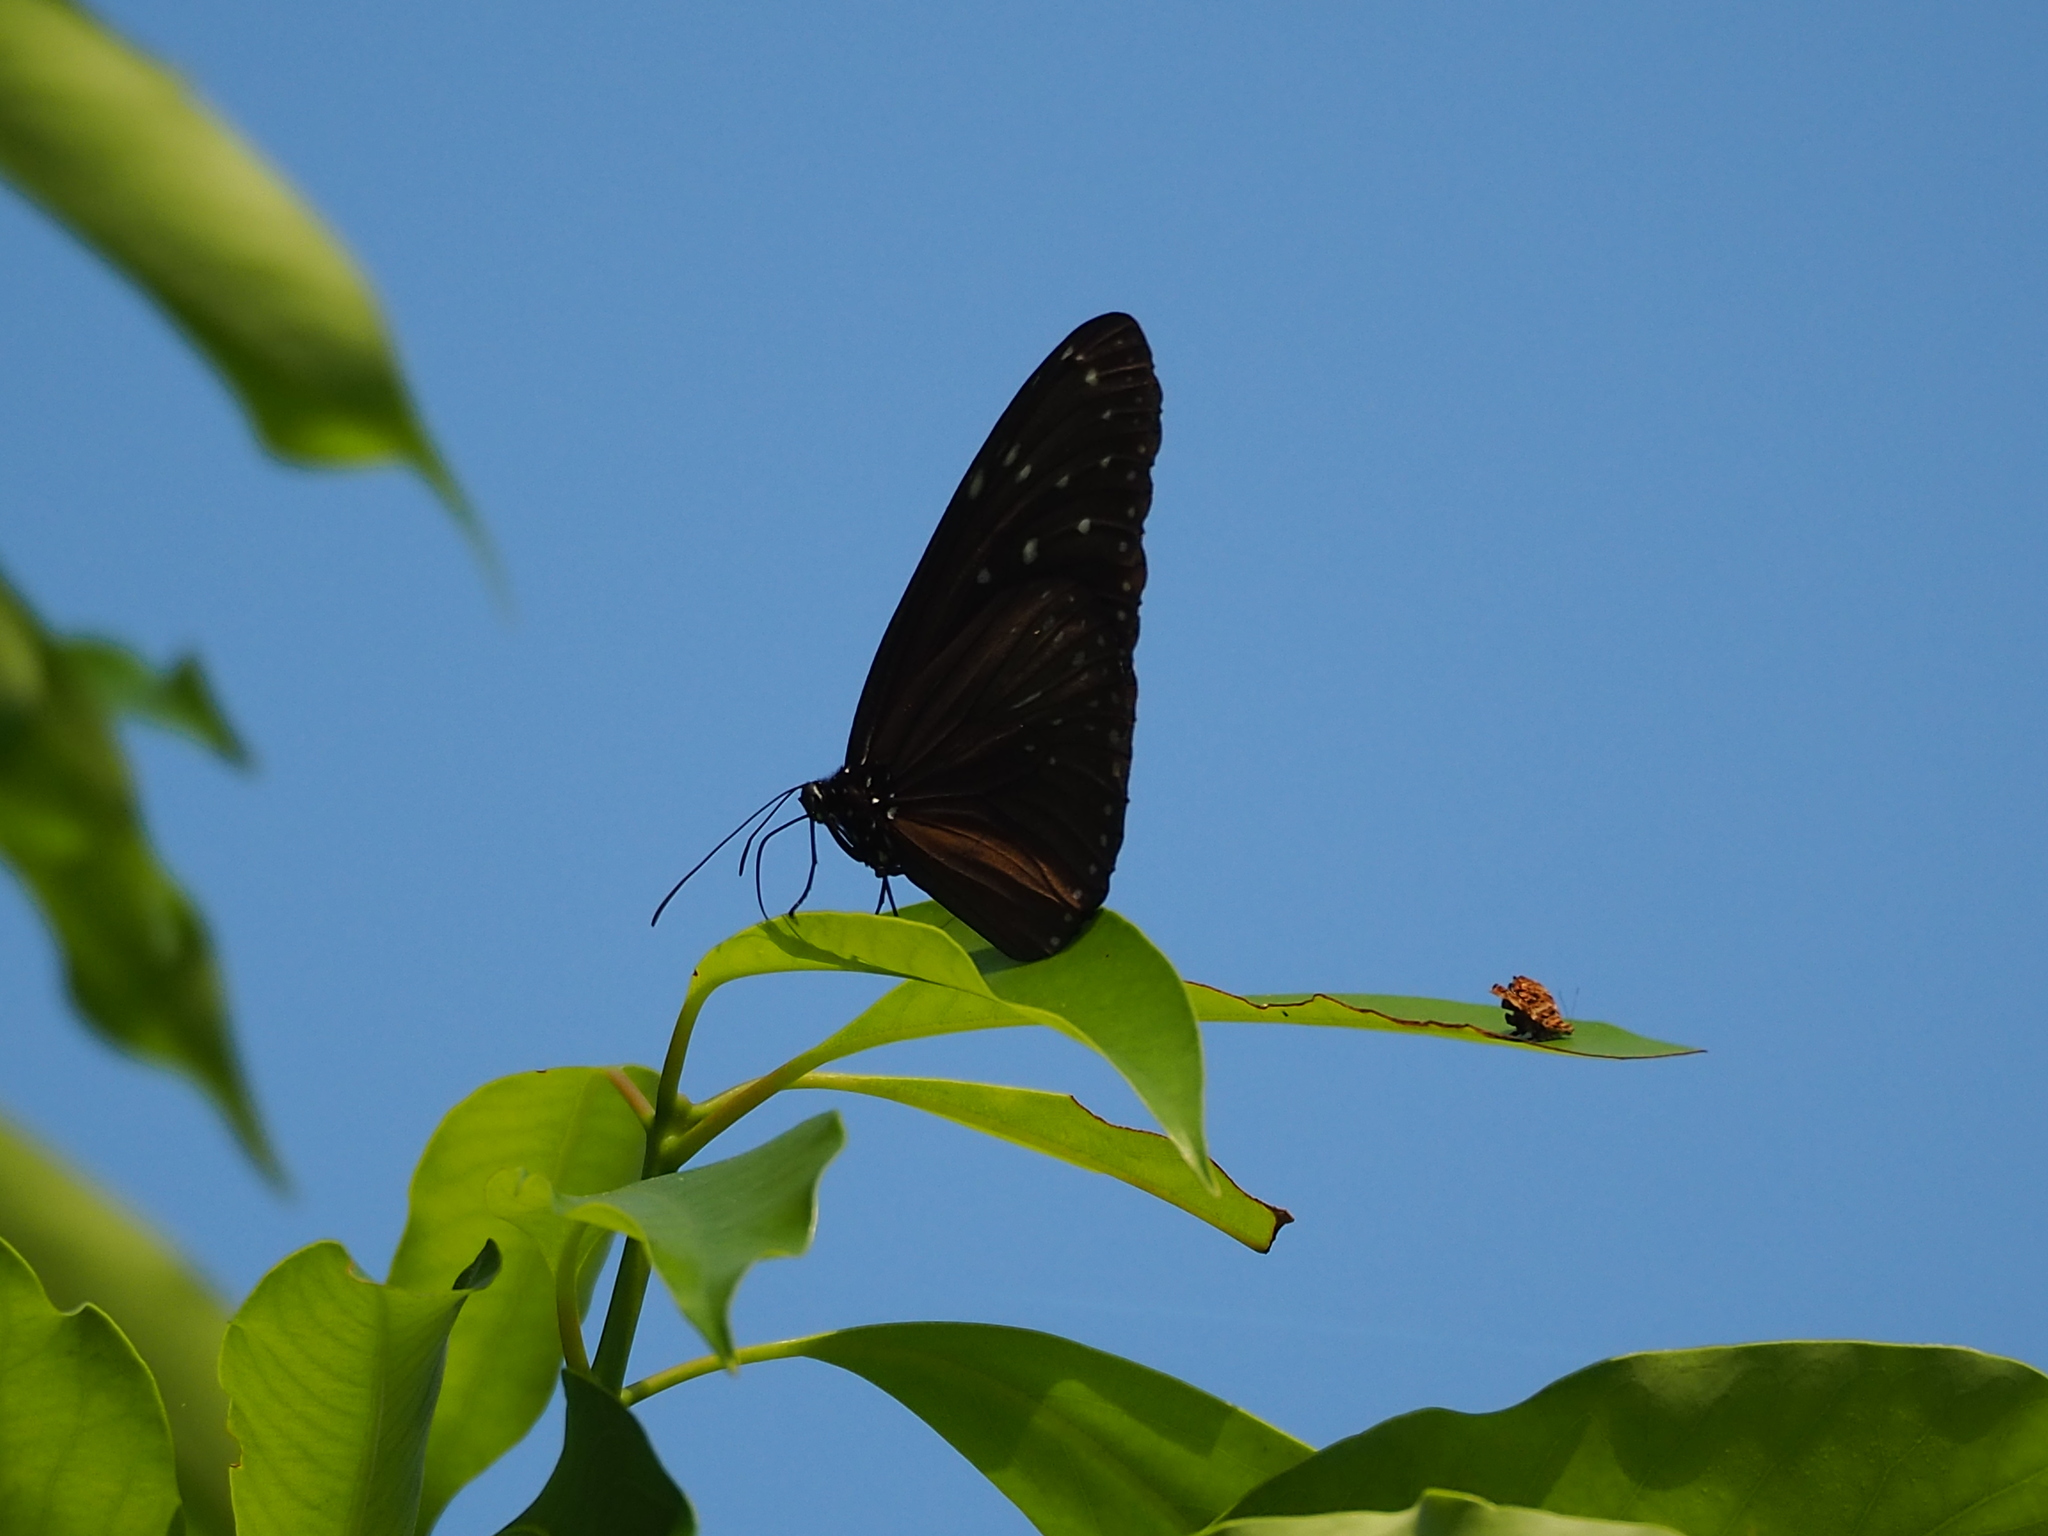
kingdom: Animalia
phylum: Arthropoda
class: Insecta
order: Lepidoptera
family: Nymphalidae
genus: Euploea
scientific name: Euploea mulciber
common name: Striped blue crow butterfly
